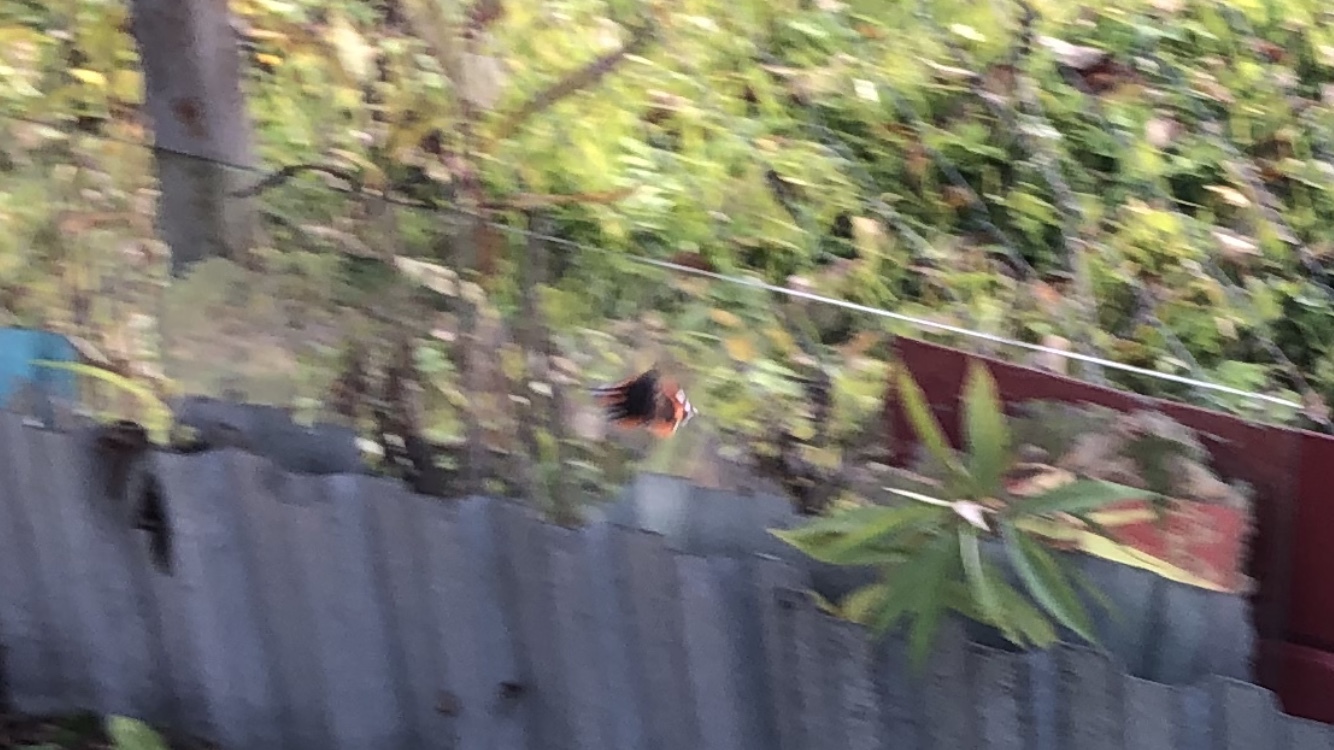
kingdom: Animalia
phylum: Arthropoda
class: Insecta
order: Lepidoptera
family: Nymphalidae
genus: Vanessa
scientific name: Vanessa atalanta
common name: Red admiral
